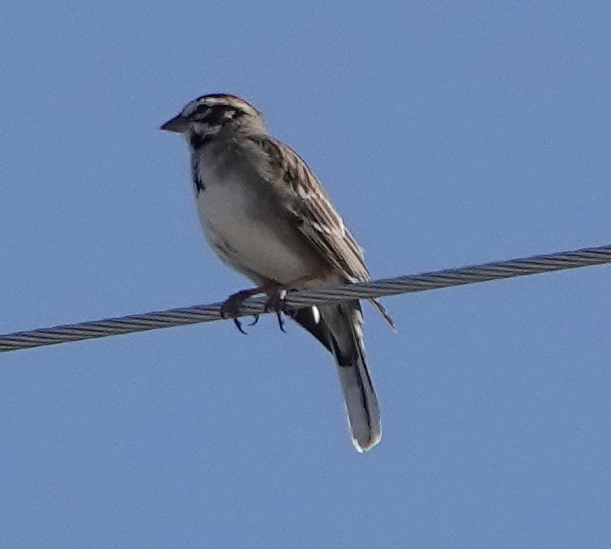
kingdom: Animalia
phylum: Chordata
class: Aves
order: Passeriformes
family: Passerellidae
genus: Chondestes
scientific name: Chondestes grammacus
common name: Lark sparrow
